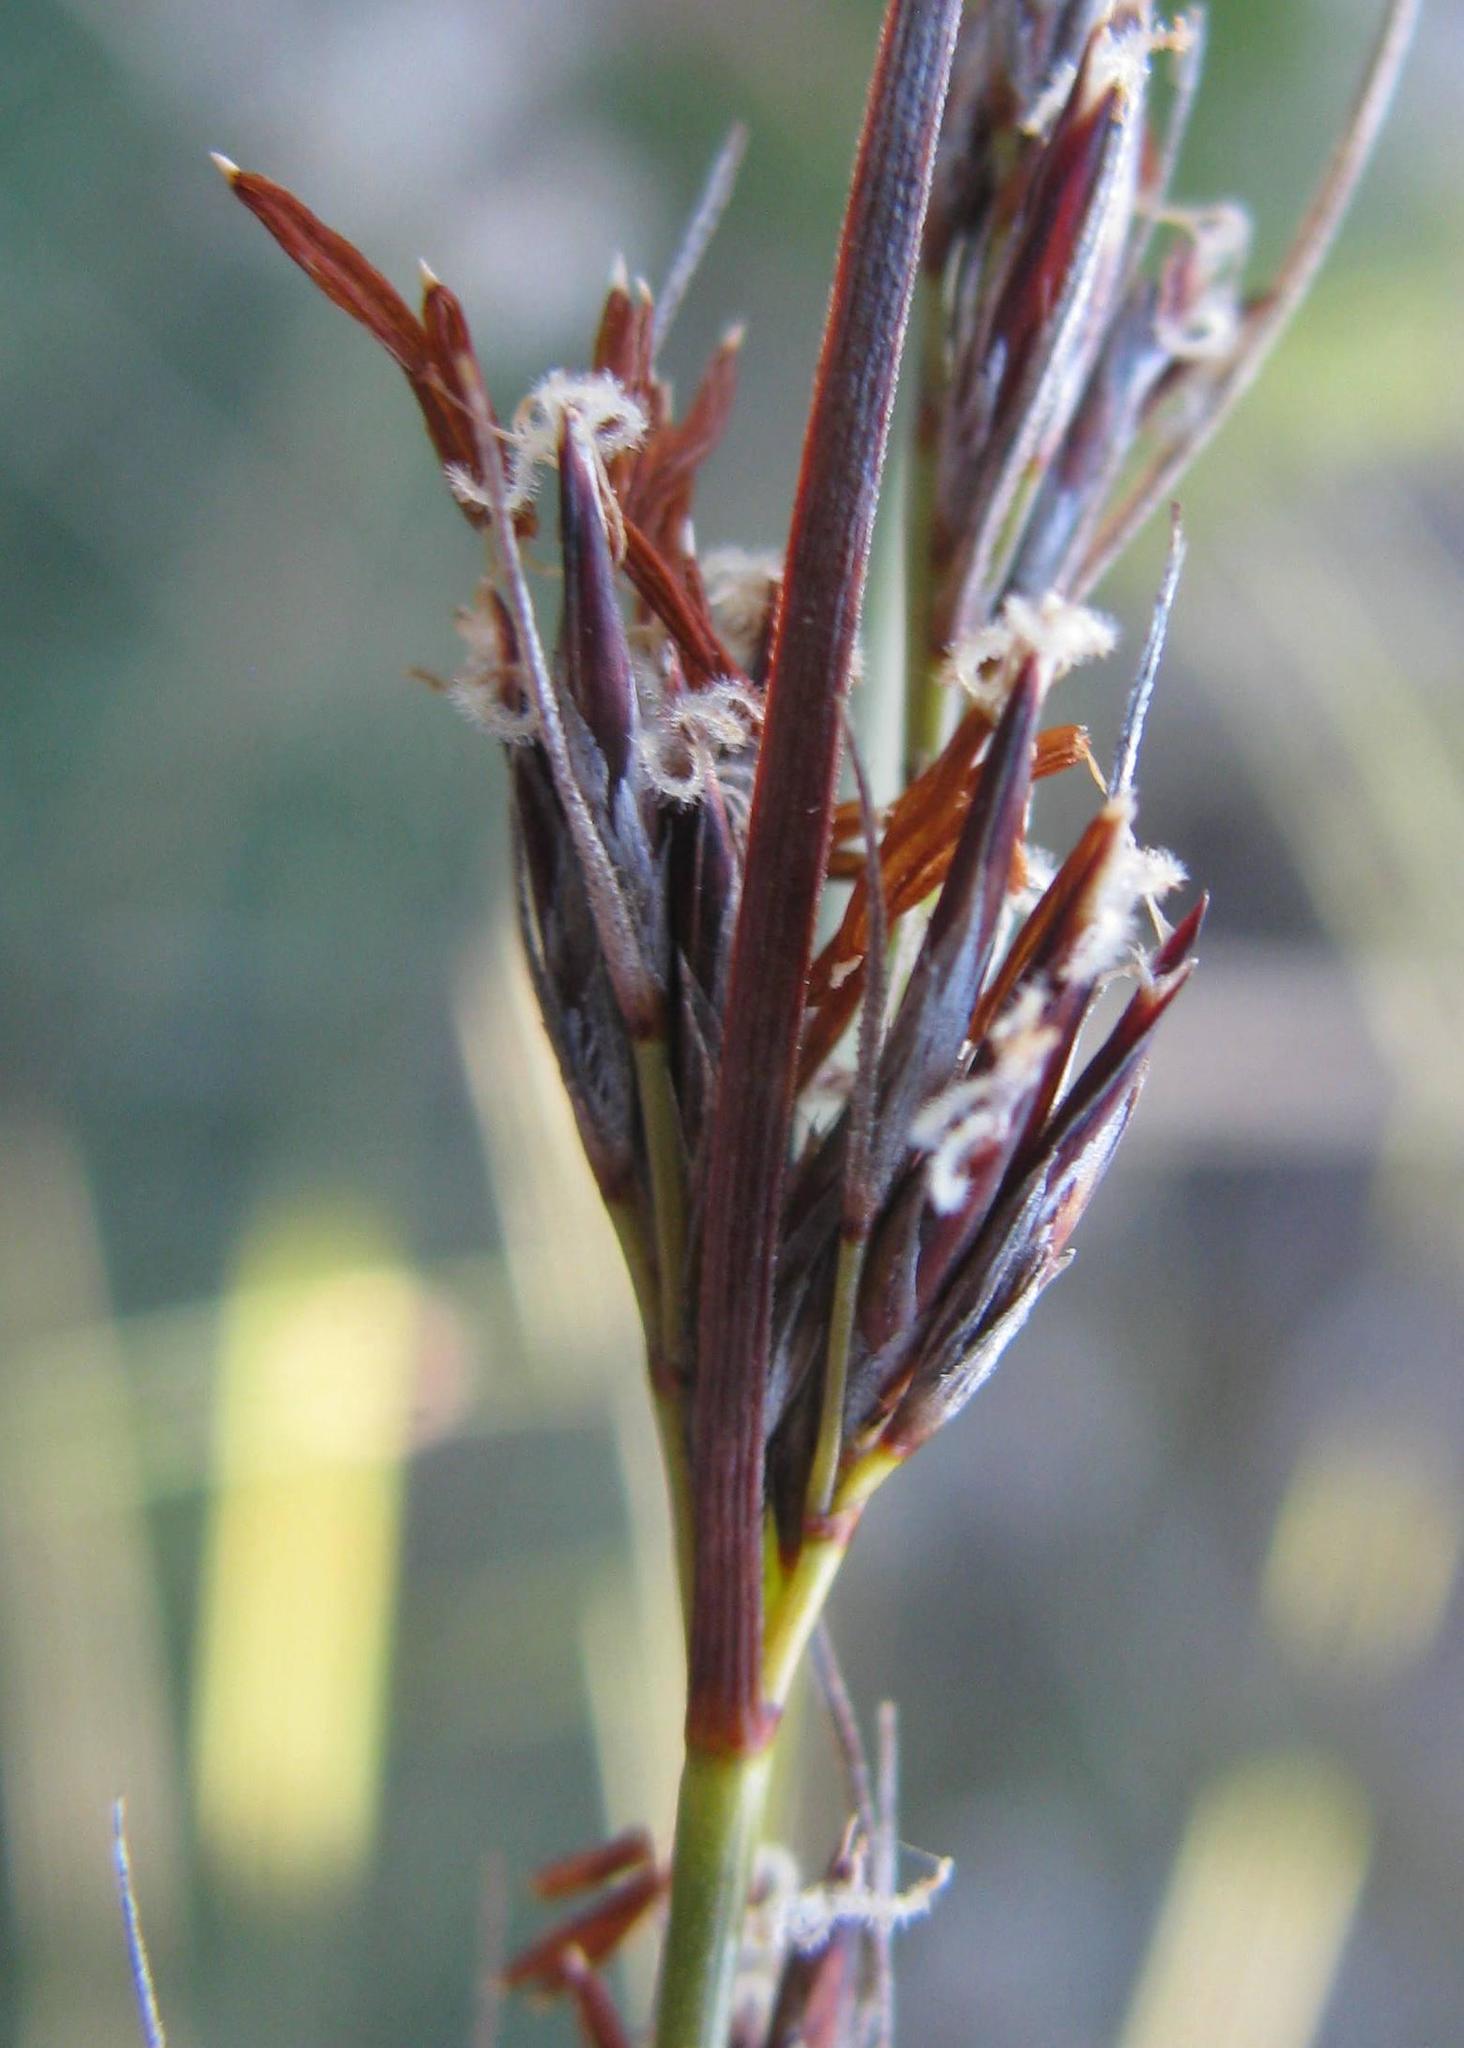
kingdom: Plantae
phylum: Tracheophyta
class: Liliopsida
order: Poales
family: Cyperaceae
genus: Schoenus
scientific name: Schoenus graciliculmis
